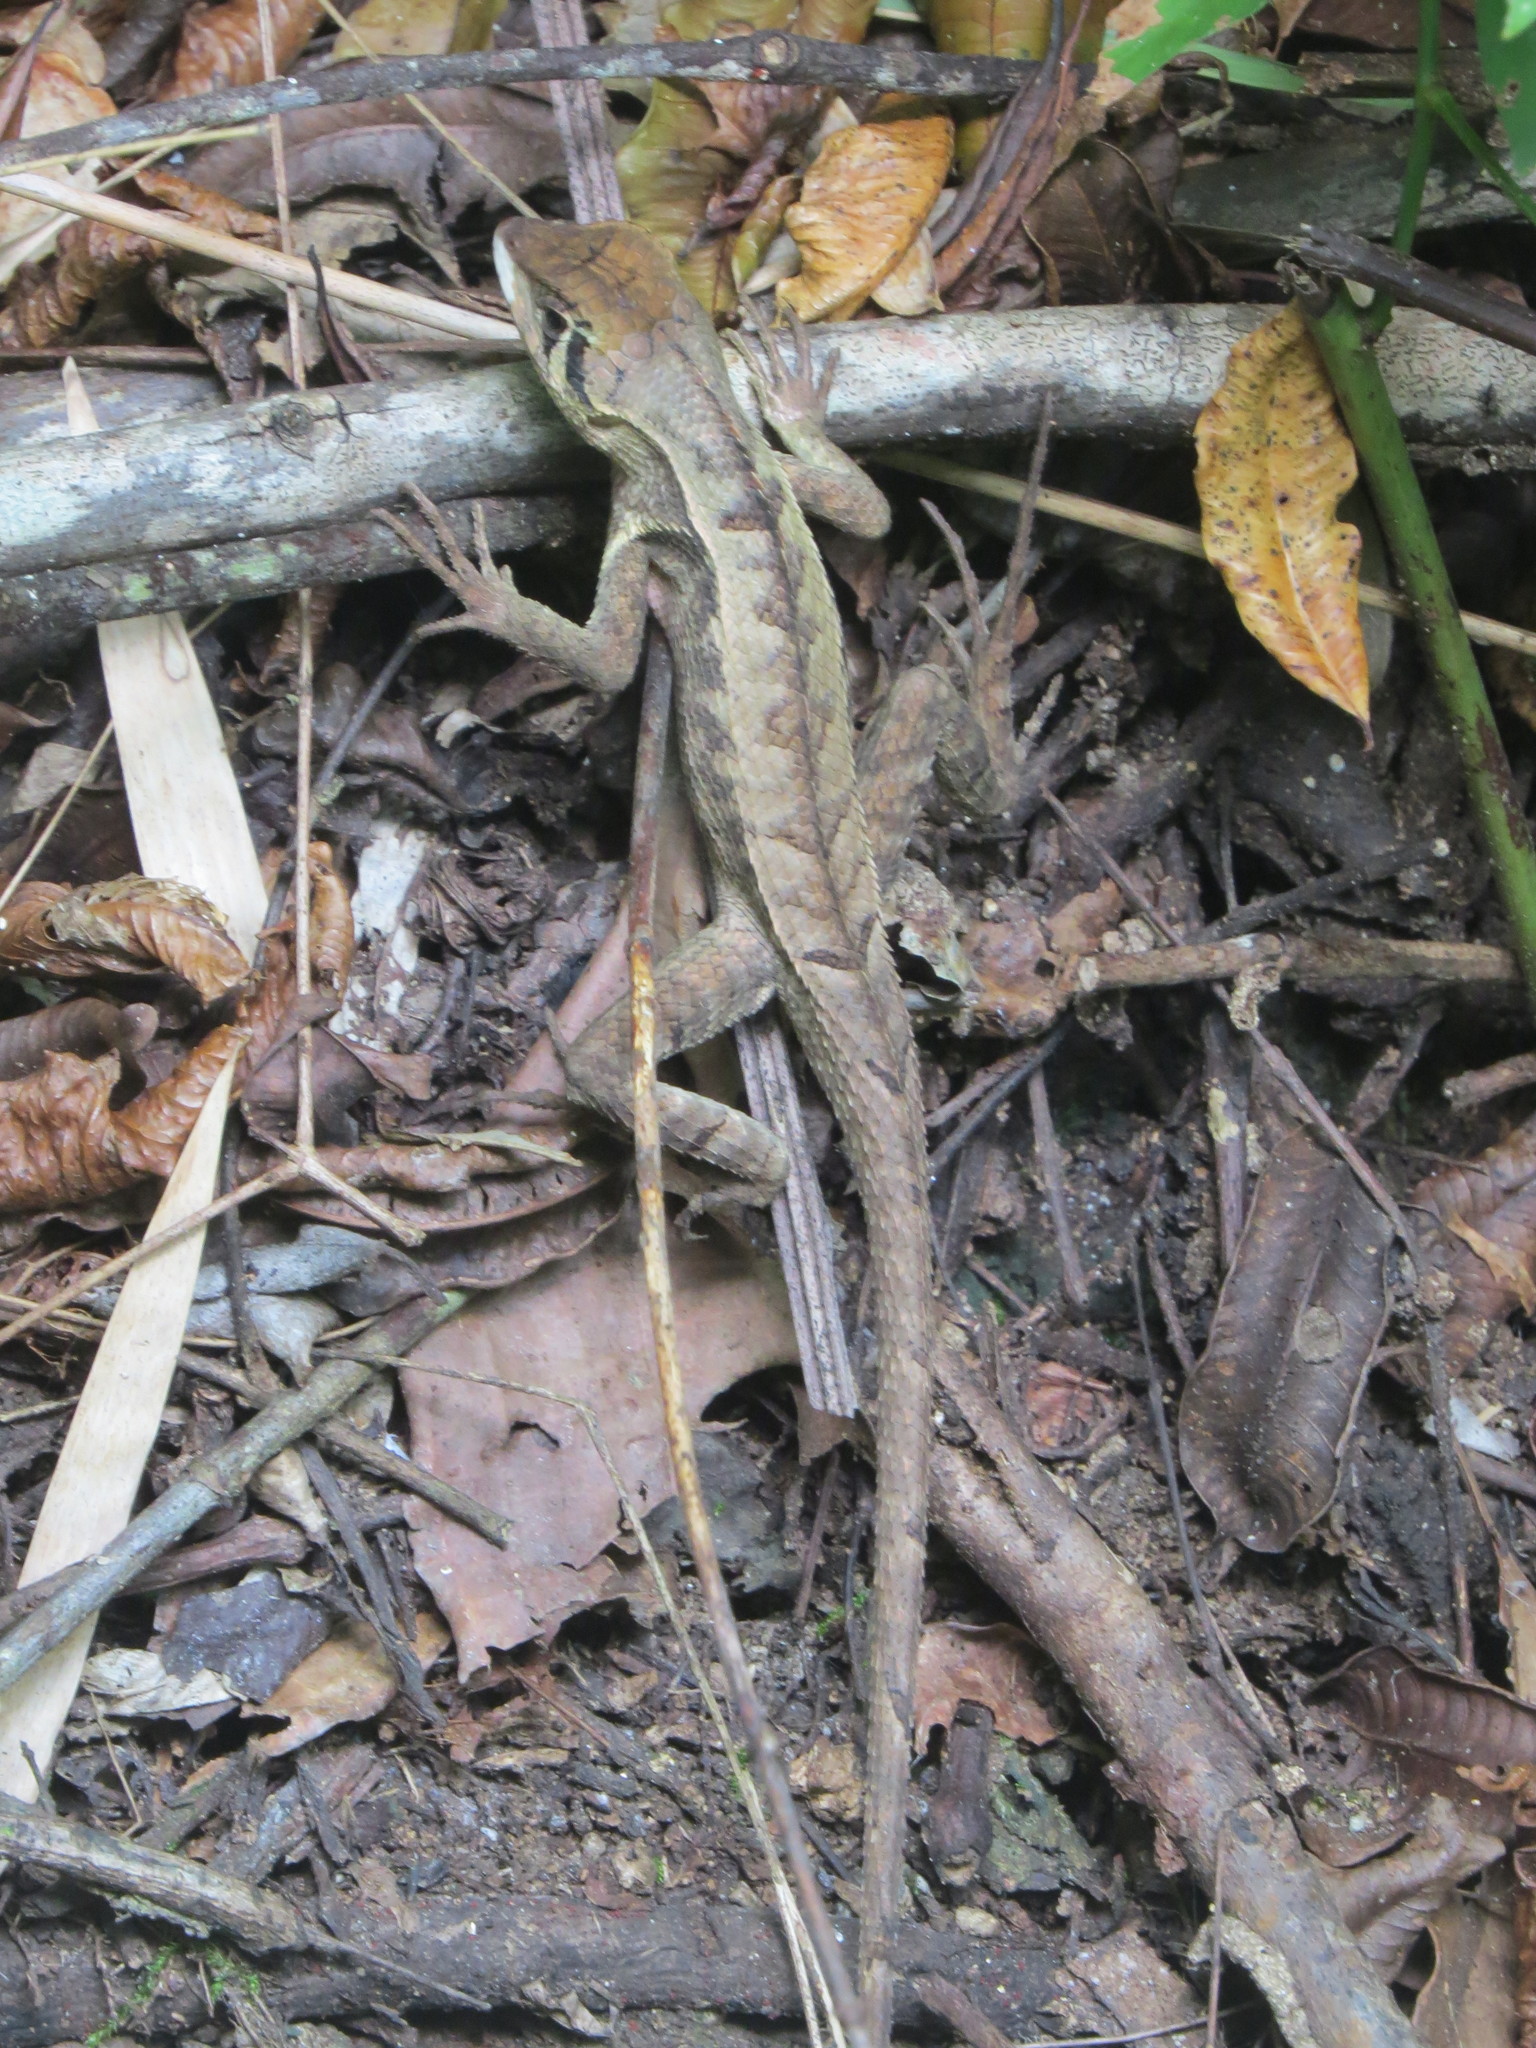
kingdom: Animalia
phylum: Chordata
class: Squamata
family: Tropiduridae
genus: Stenocercus
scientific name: Stenocercus erythrogaster
